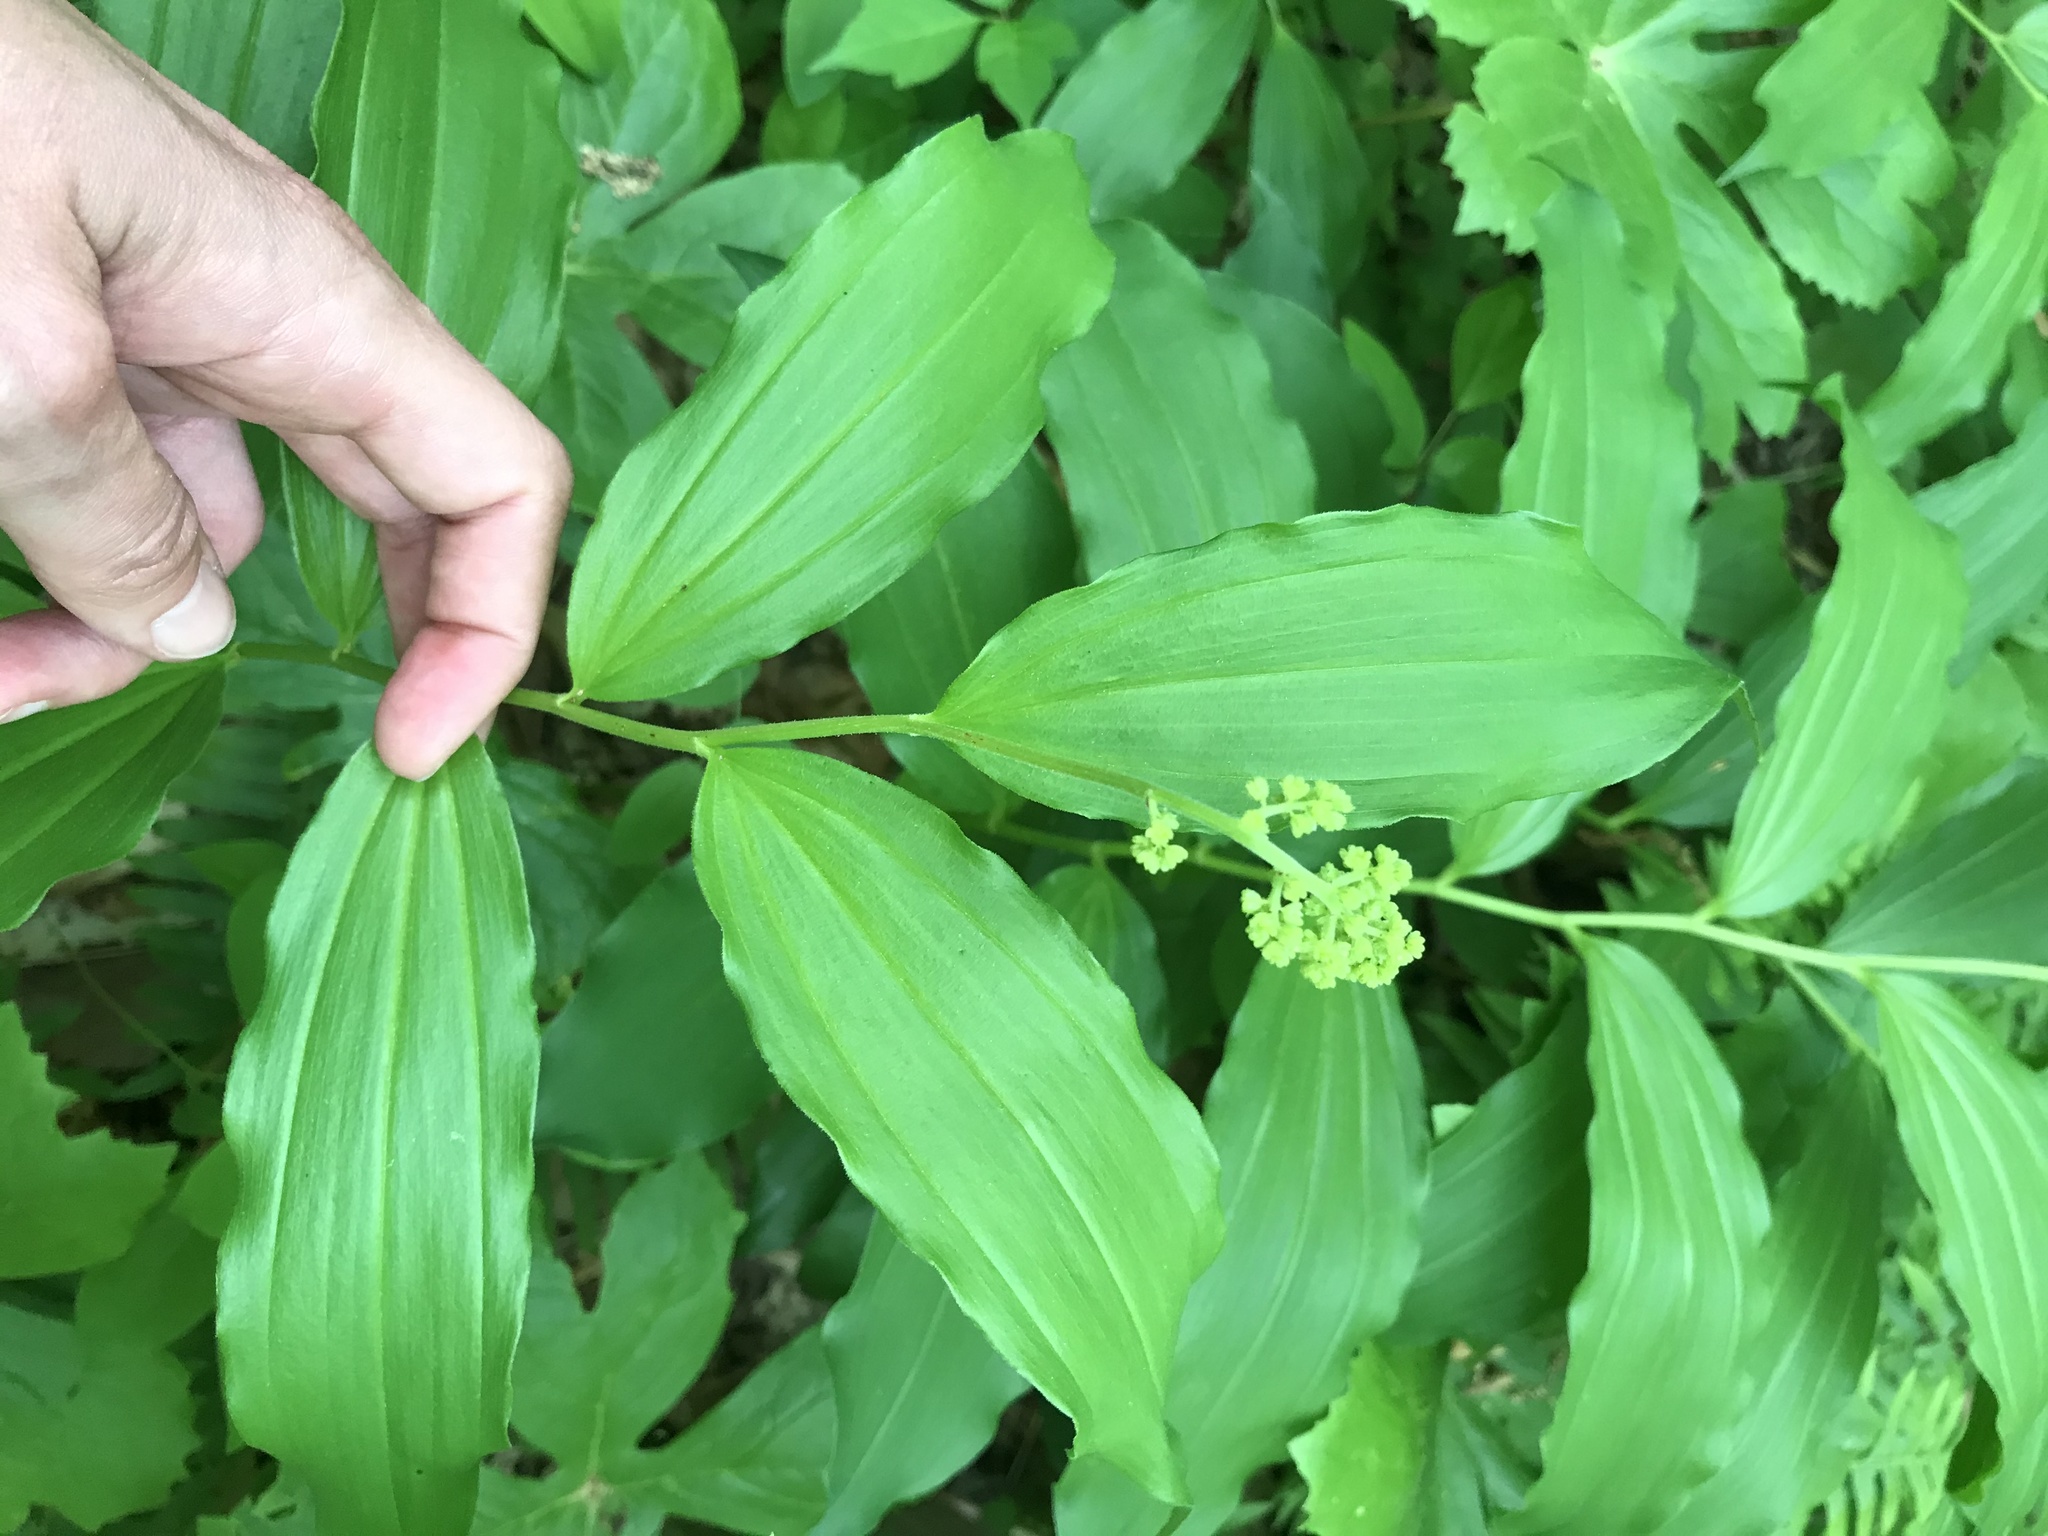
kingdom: Plantae
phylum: Tracheophyta
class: Liliopsida
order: Asparagales
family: Asparagaceae
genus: Maianthemum
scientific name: Maianthemum racemosum
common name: False spikenard
